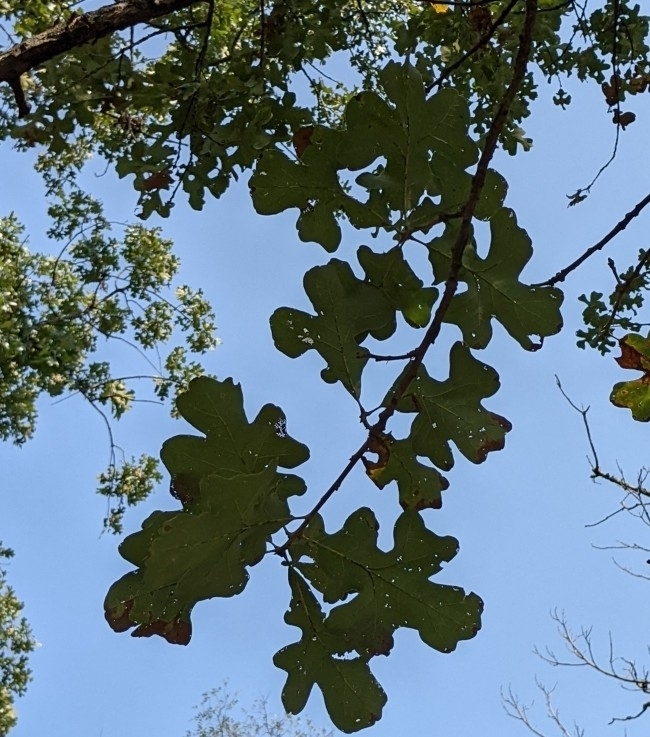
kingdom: Plantae
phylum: Tracheophyta
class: Magnoliopsida
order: Fagales
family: Fagaceae
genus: Quercus
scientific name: Quercus stellata
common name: Post oak
